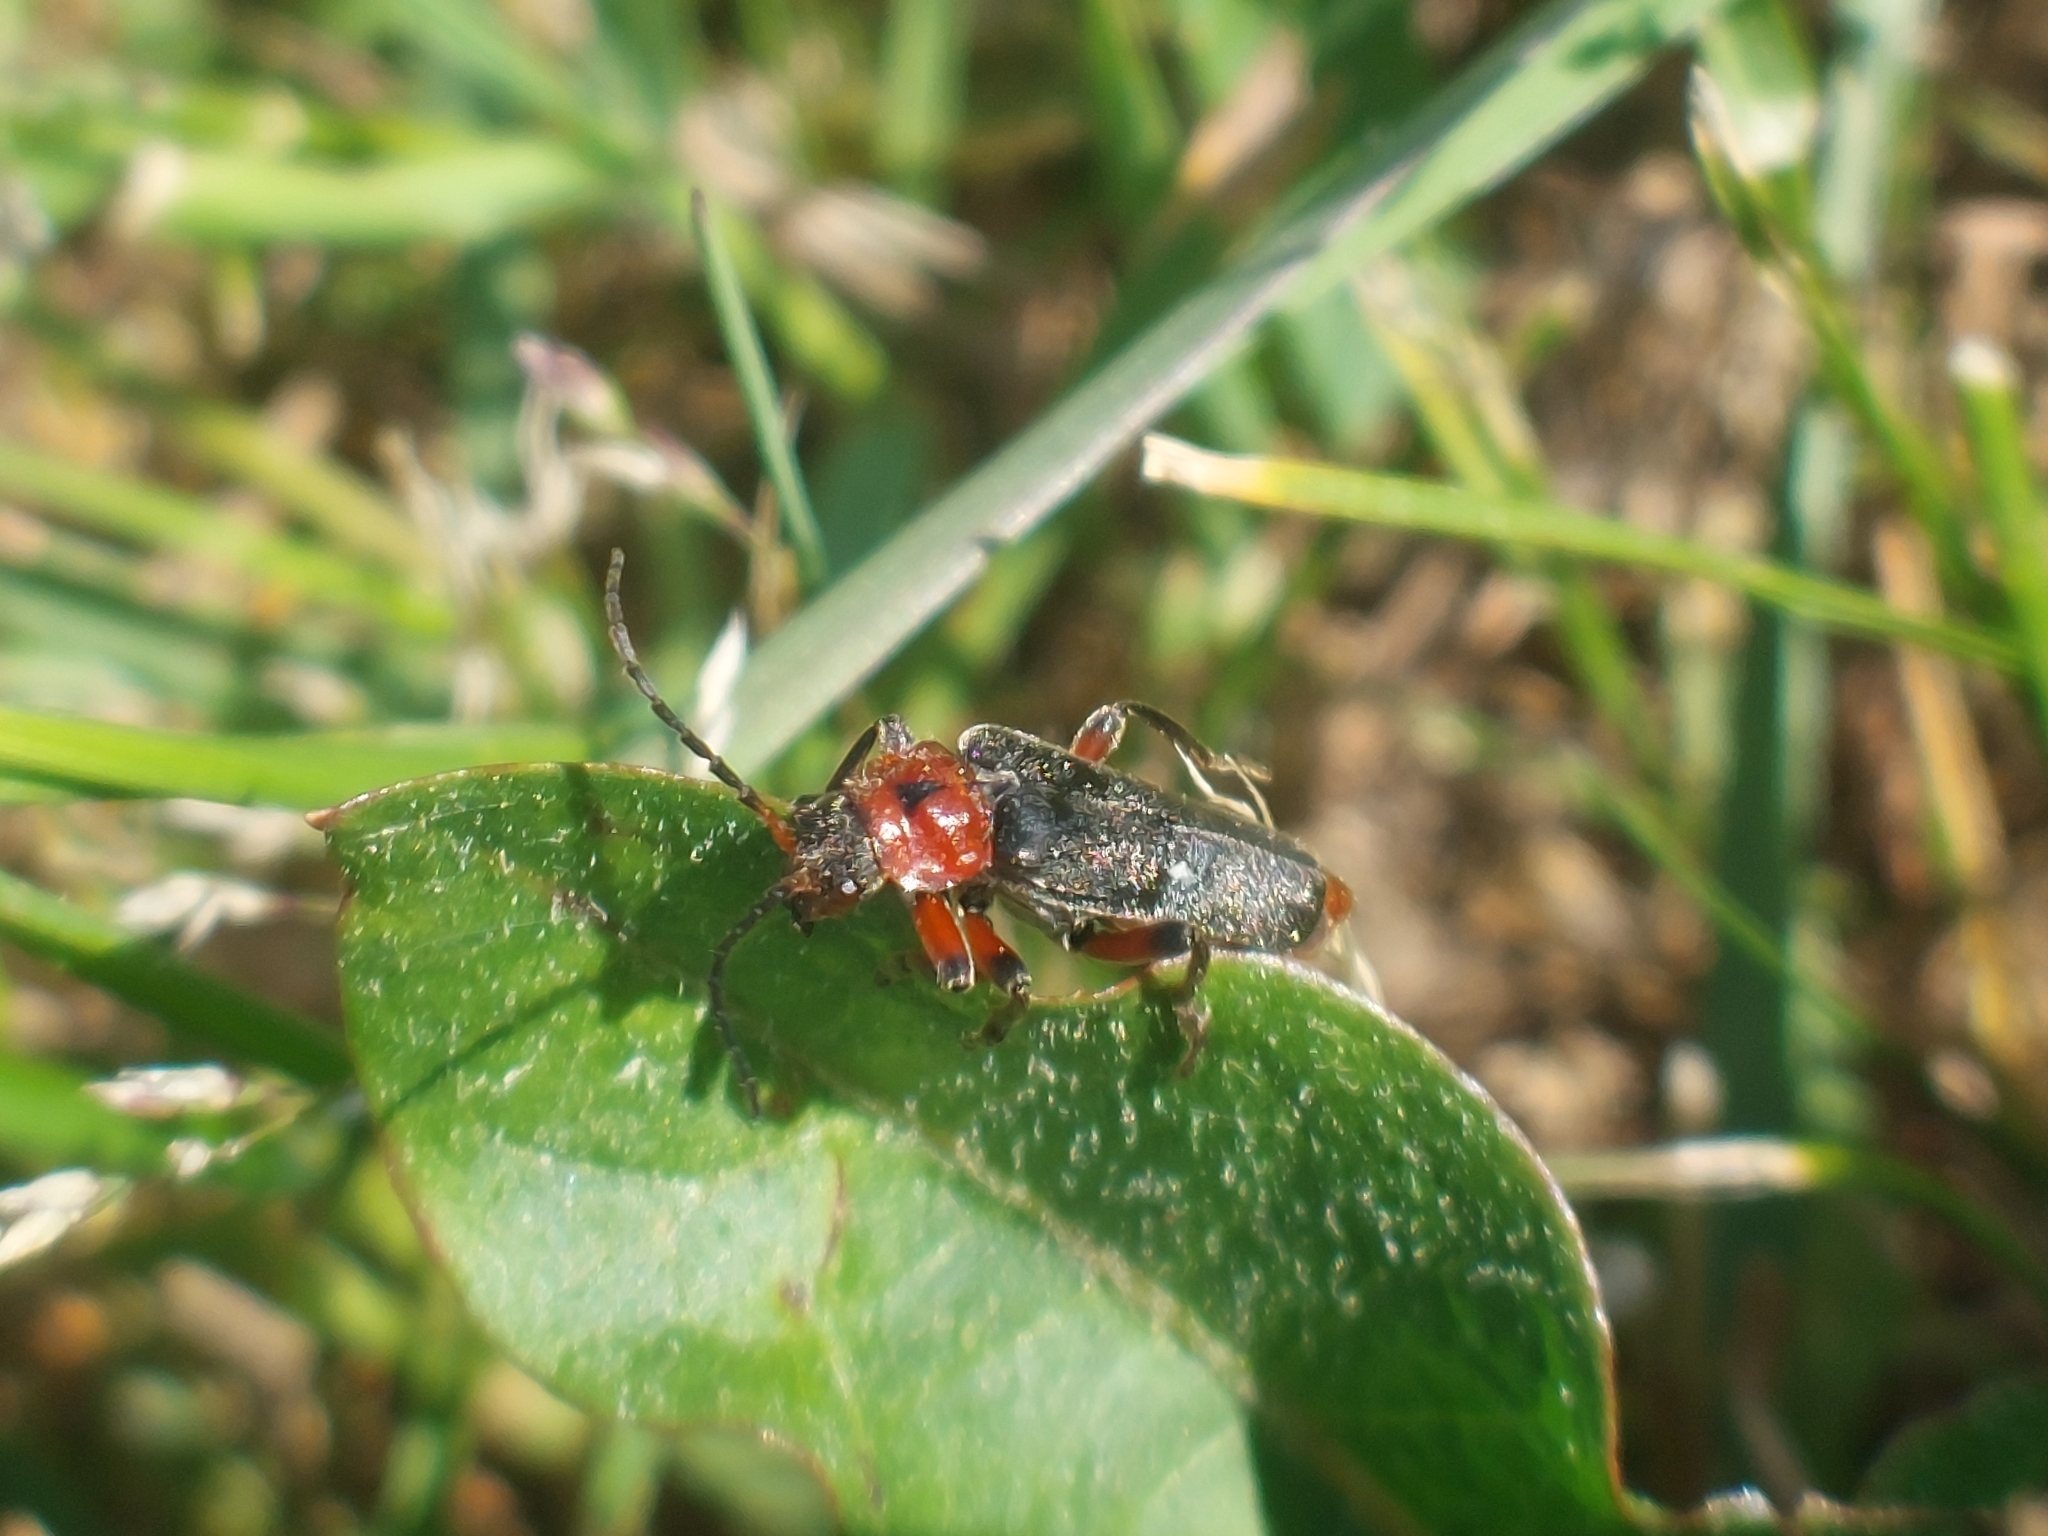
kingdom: Animalia
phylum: Arthropoda
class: Insecta
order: Coleoptera
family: Cantharidae
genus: Cantharis
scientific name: Cantharis rustica
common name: Soldier beetle
